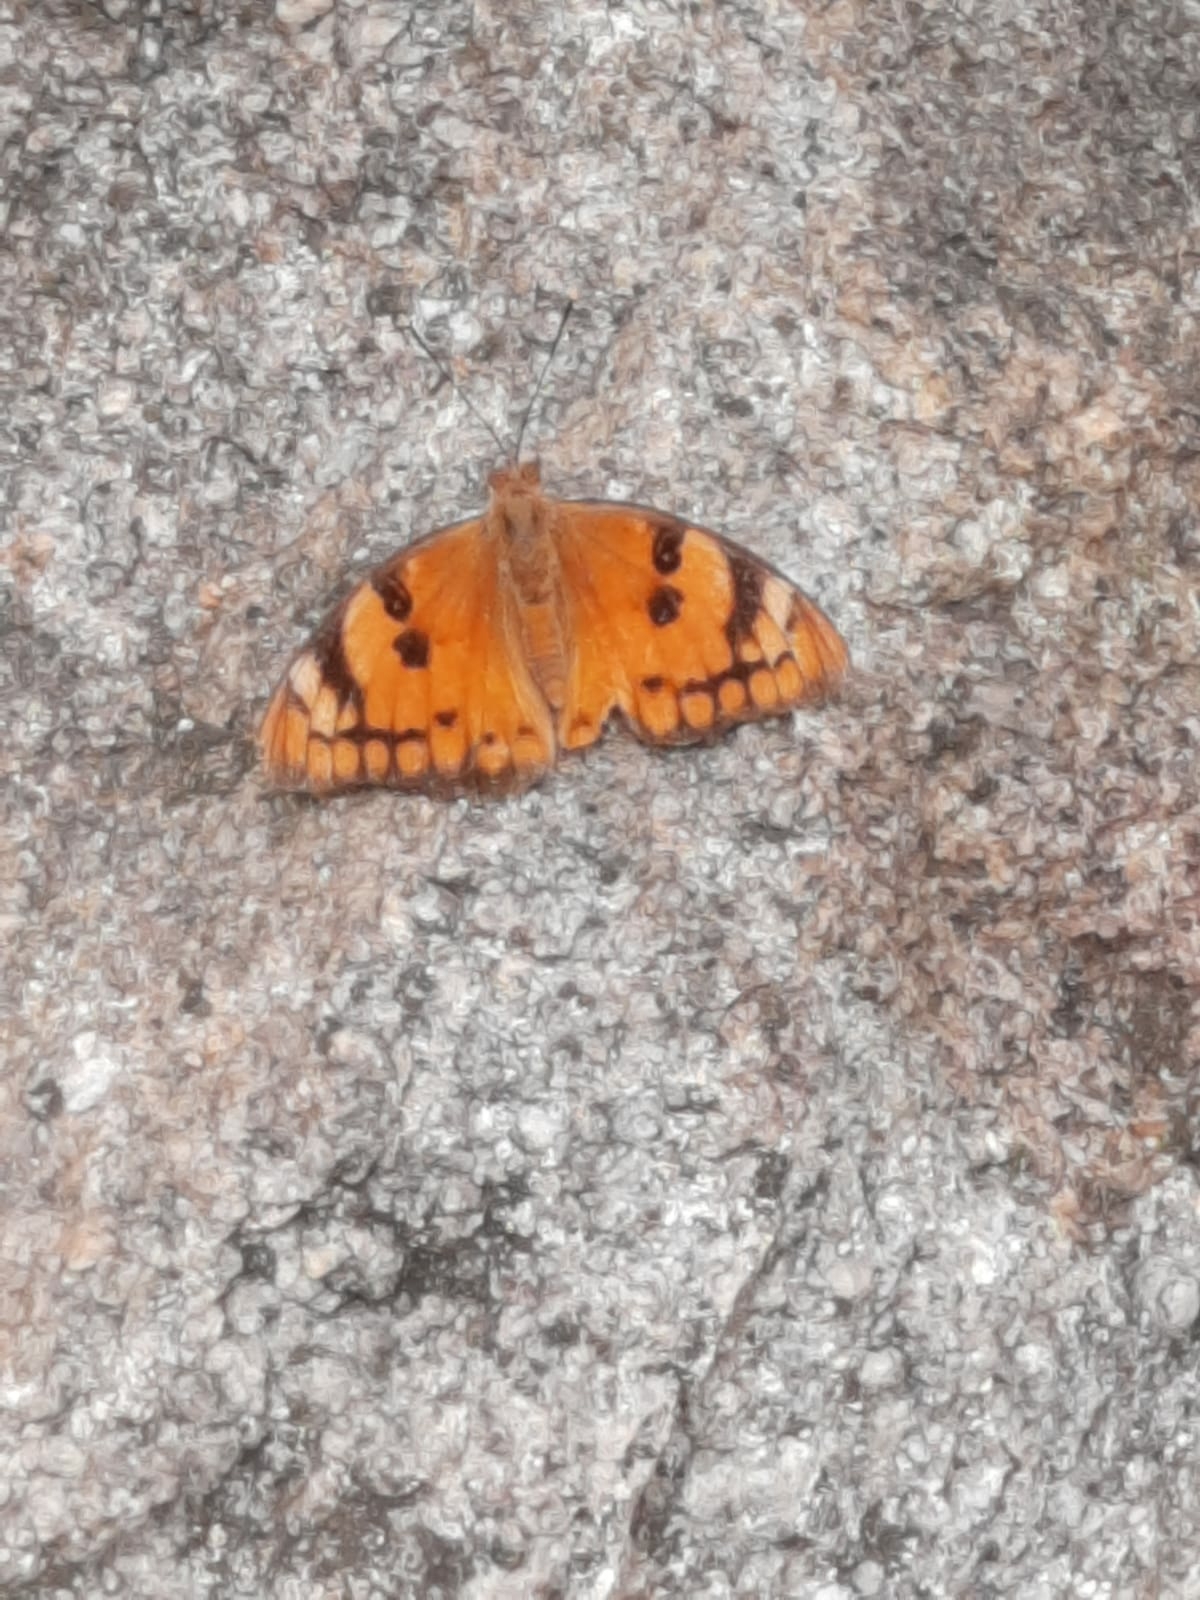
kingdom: Animalia
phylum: Arthropoda
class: Insecta
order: Lepidoptera
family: Nymphalidae
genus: Euthalia
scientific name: Euthalia nais
